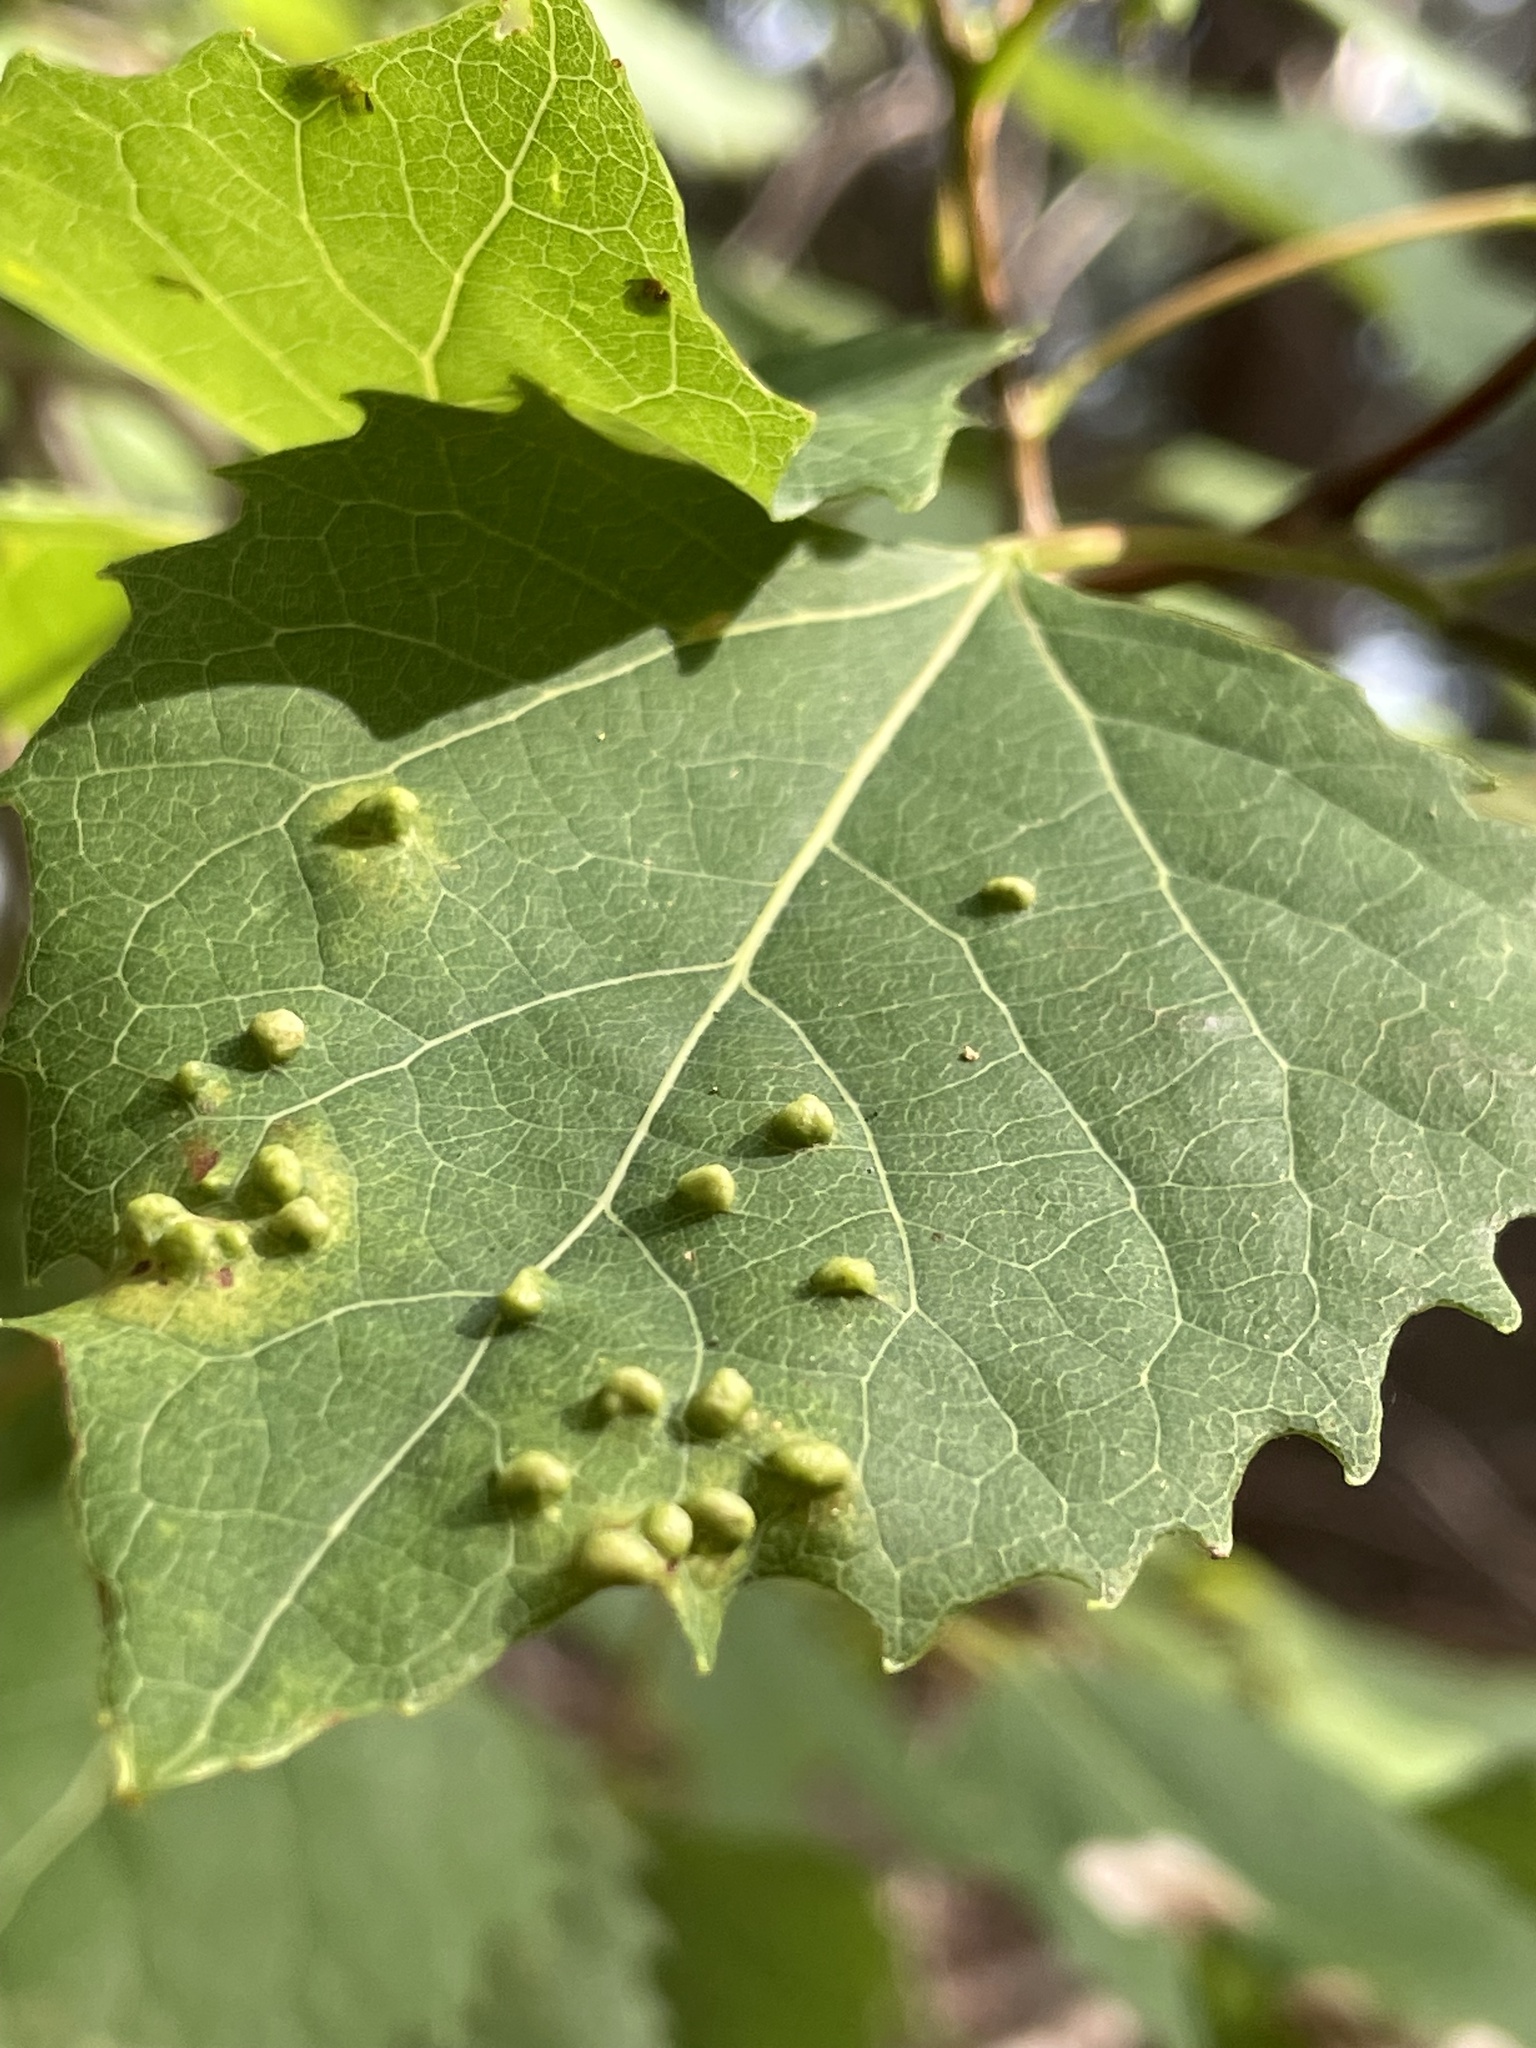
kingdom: Animalia
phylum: Arthropoda
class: Arachnida
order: Trombidiformes
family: Eriophyidae
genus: Phyllocoptes
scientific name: Phyllocoptes populi
